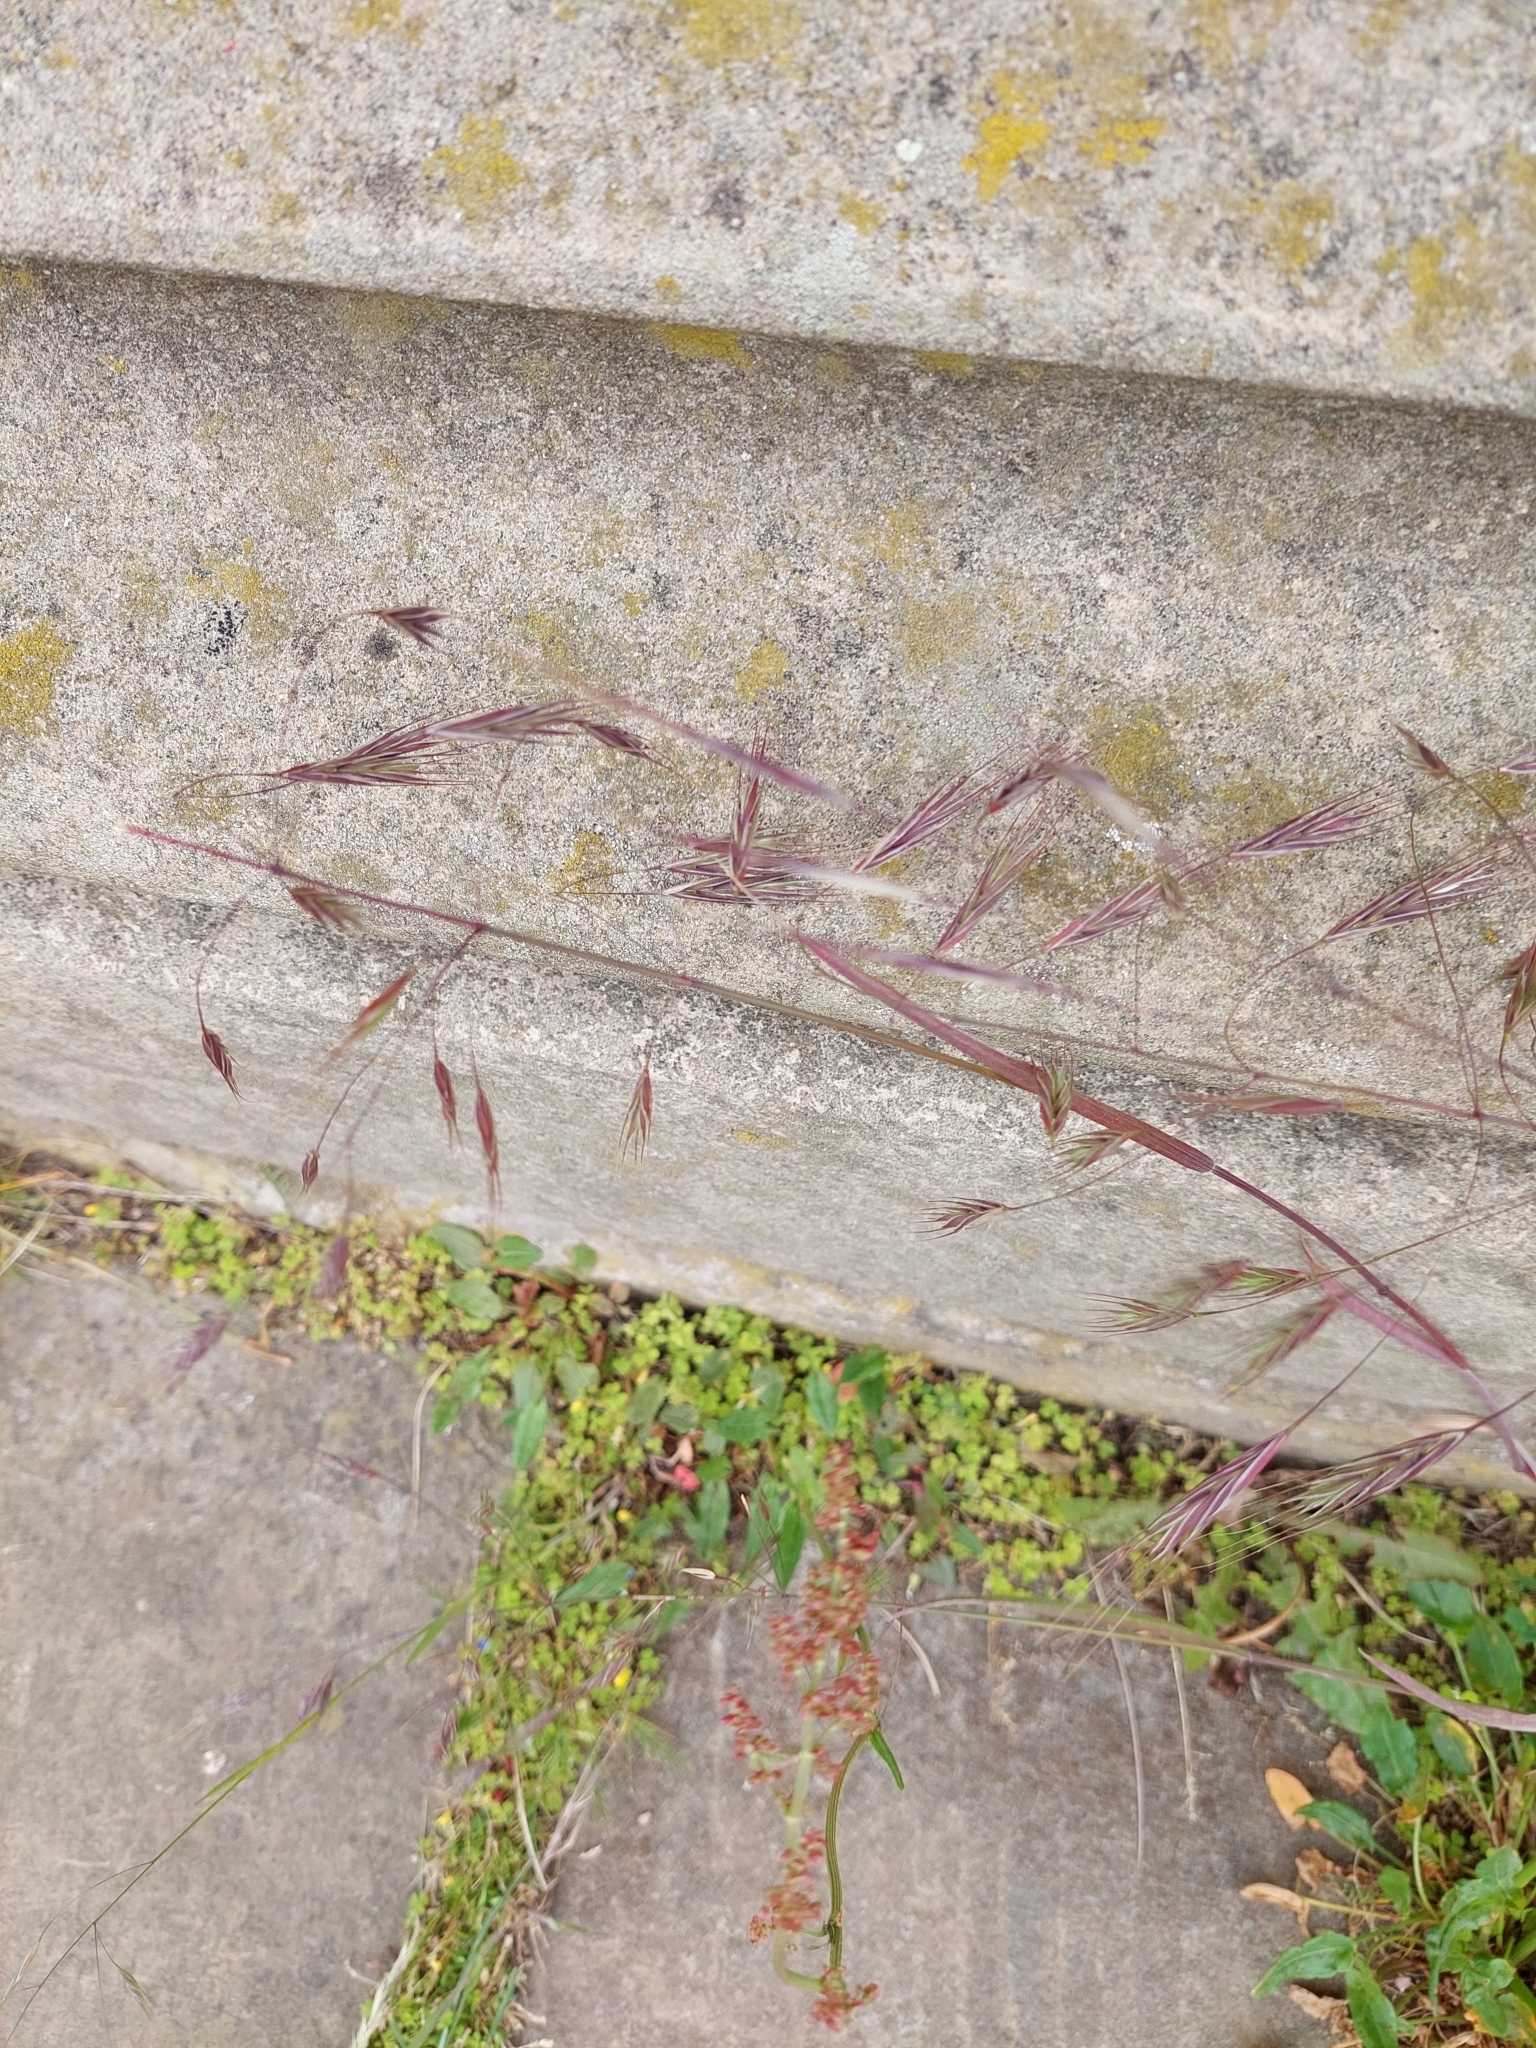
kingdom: Plantae
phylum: Tracheophyta
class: Liliopsida
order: Poales
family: Poaceae
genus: Bromus
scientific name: Bromus sterilis
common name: Poverty brome
